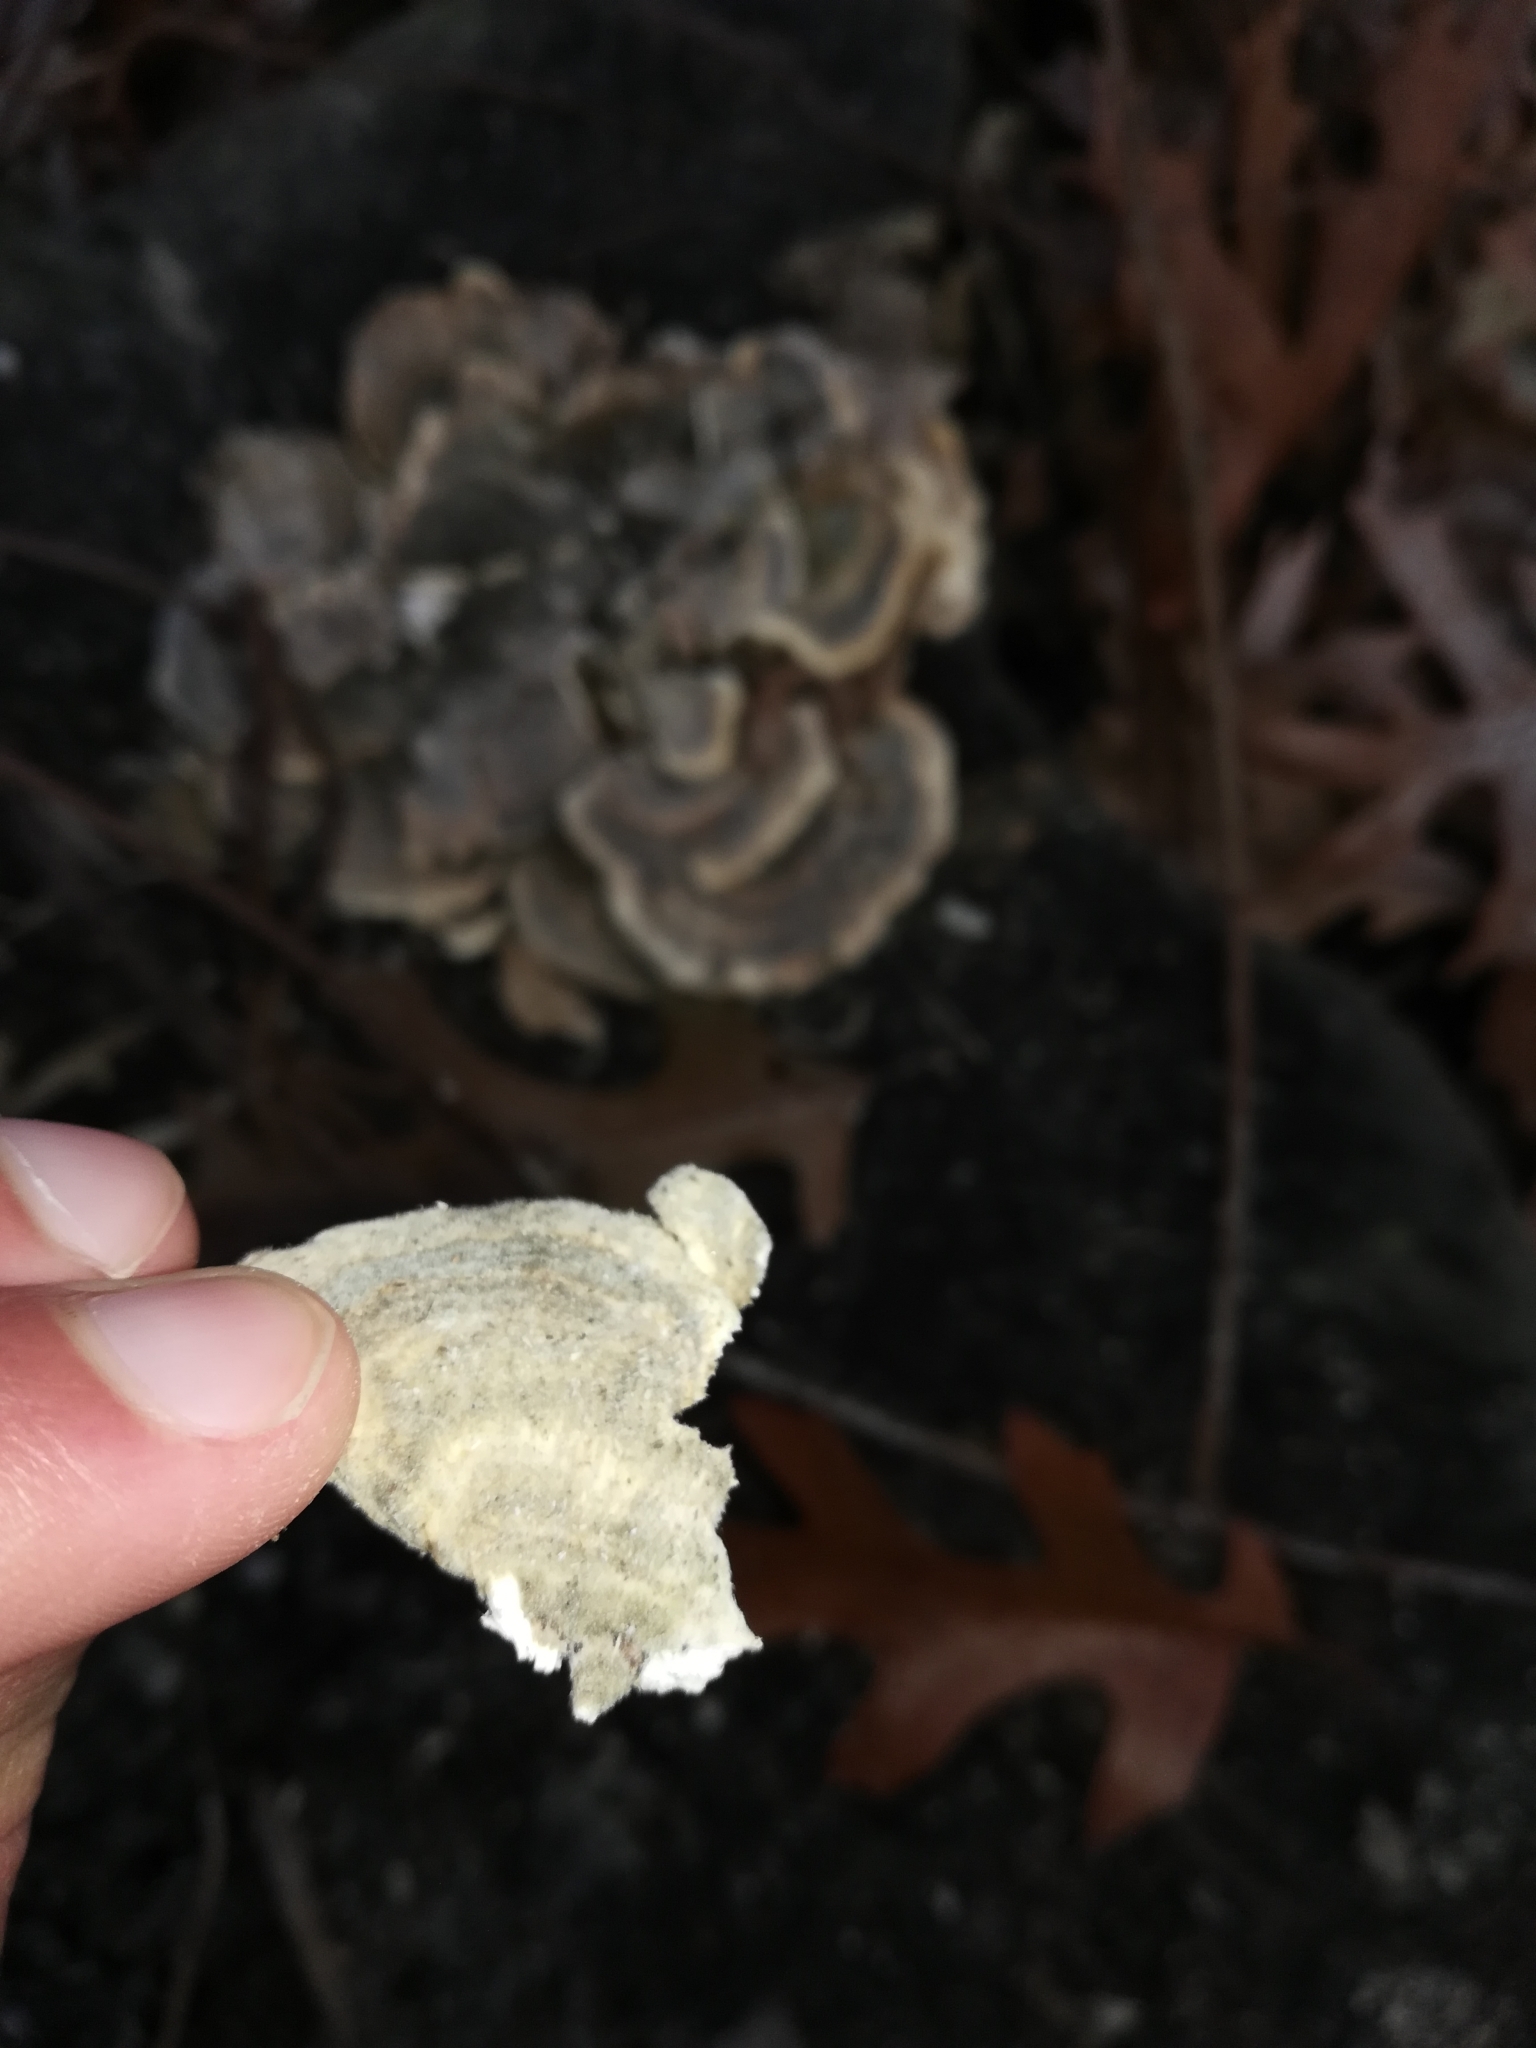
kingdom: Fungi
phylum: Basidiomycota
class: Agaricomycetes
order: Polyporales
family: Polyporaceae
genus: Trametes
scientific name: Trametes versicolor
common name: Turkeytail
